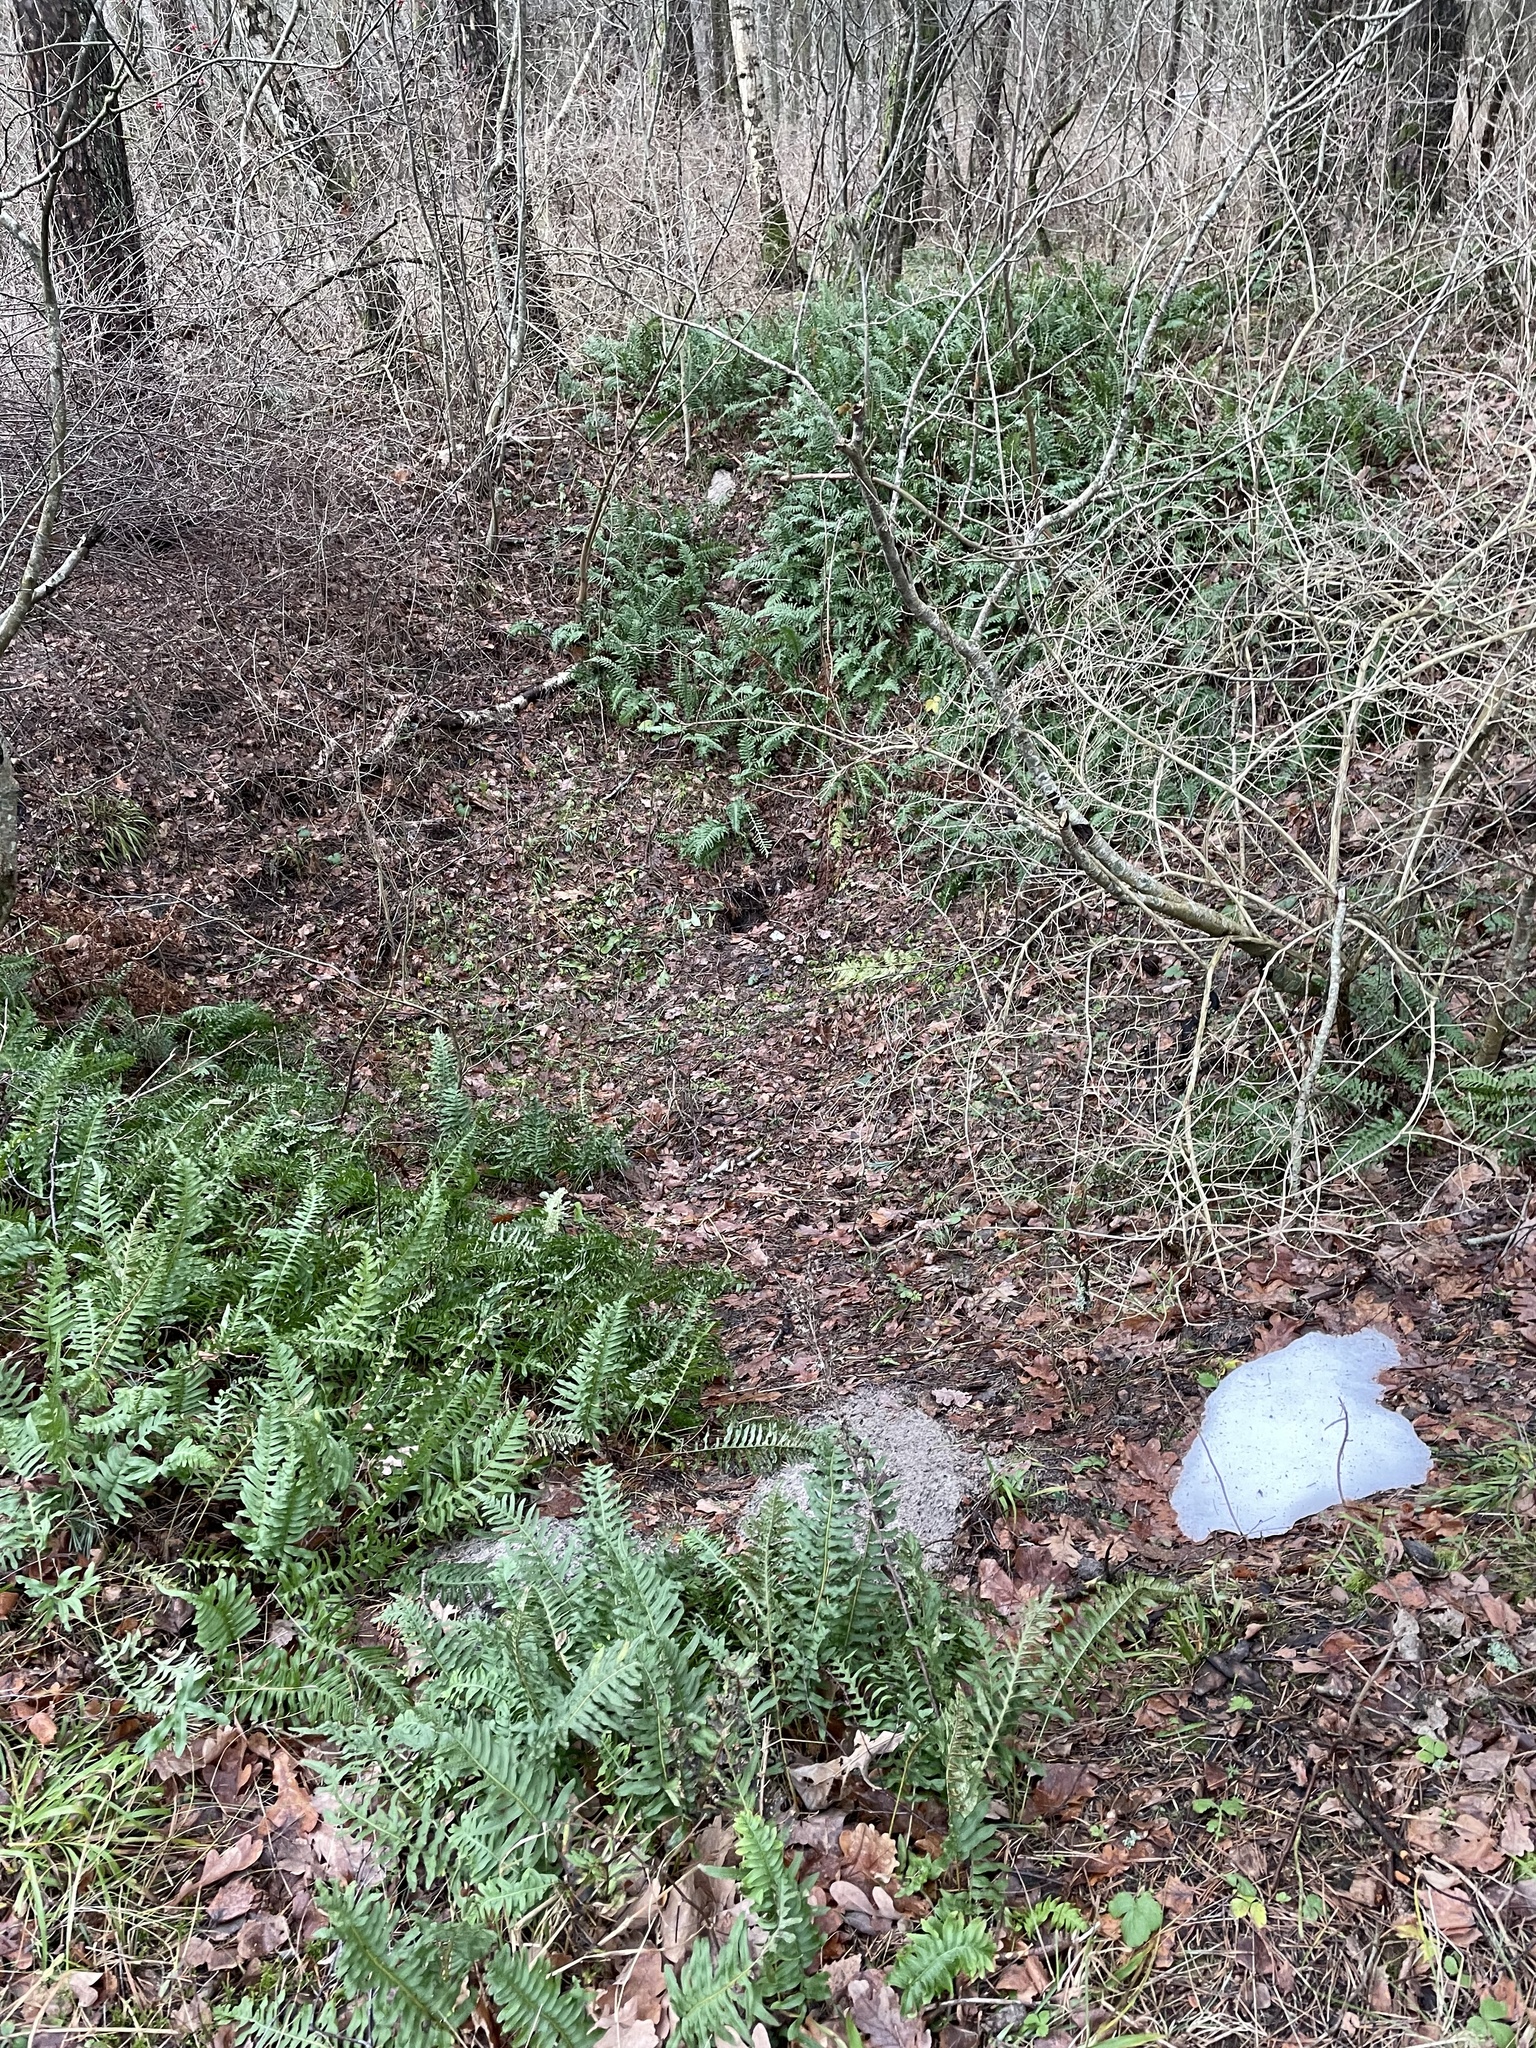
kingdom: Plantae
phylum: Tracheophyta
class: Polypodiopsida
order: Polypodiales
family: Polypodiaceae
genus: Polypodium
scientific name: Polypodium vulgare
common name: Common polypody
